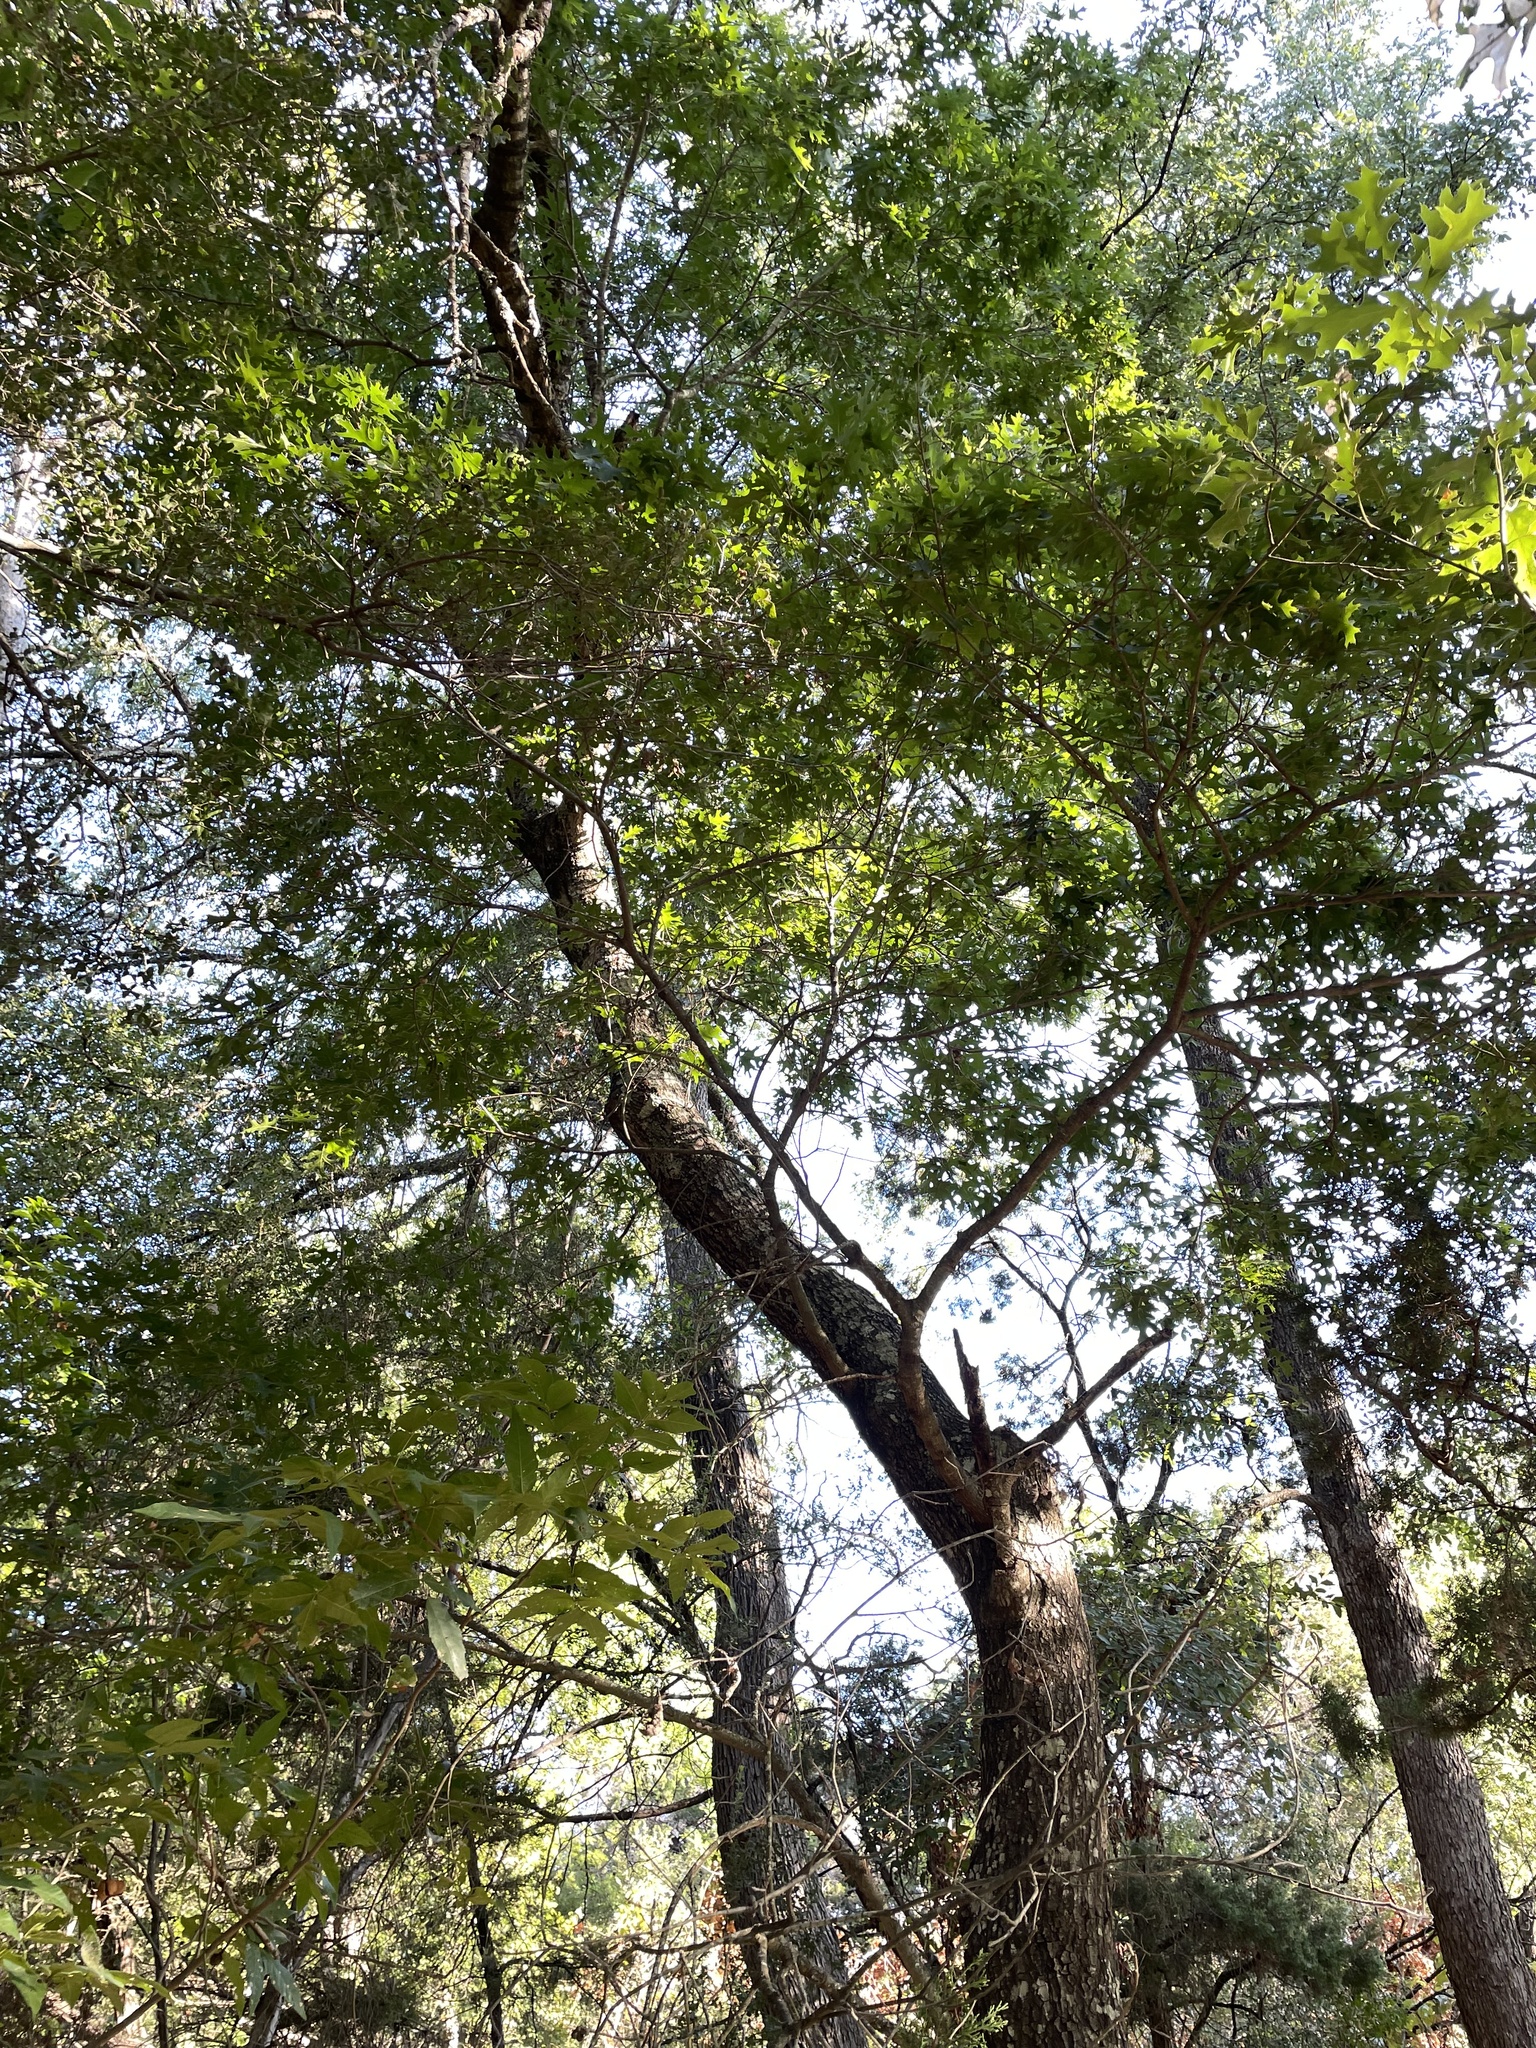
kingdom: Plantae
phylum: Tracheophyta
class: Magnoliopsida
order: Fagales
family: Fagaceae
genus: Quercus
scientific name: Quercus buckleyi
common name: Buckley oak
